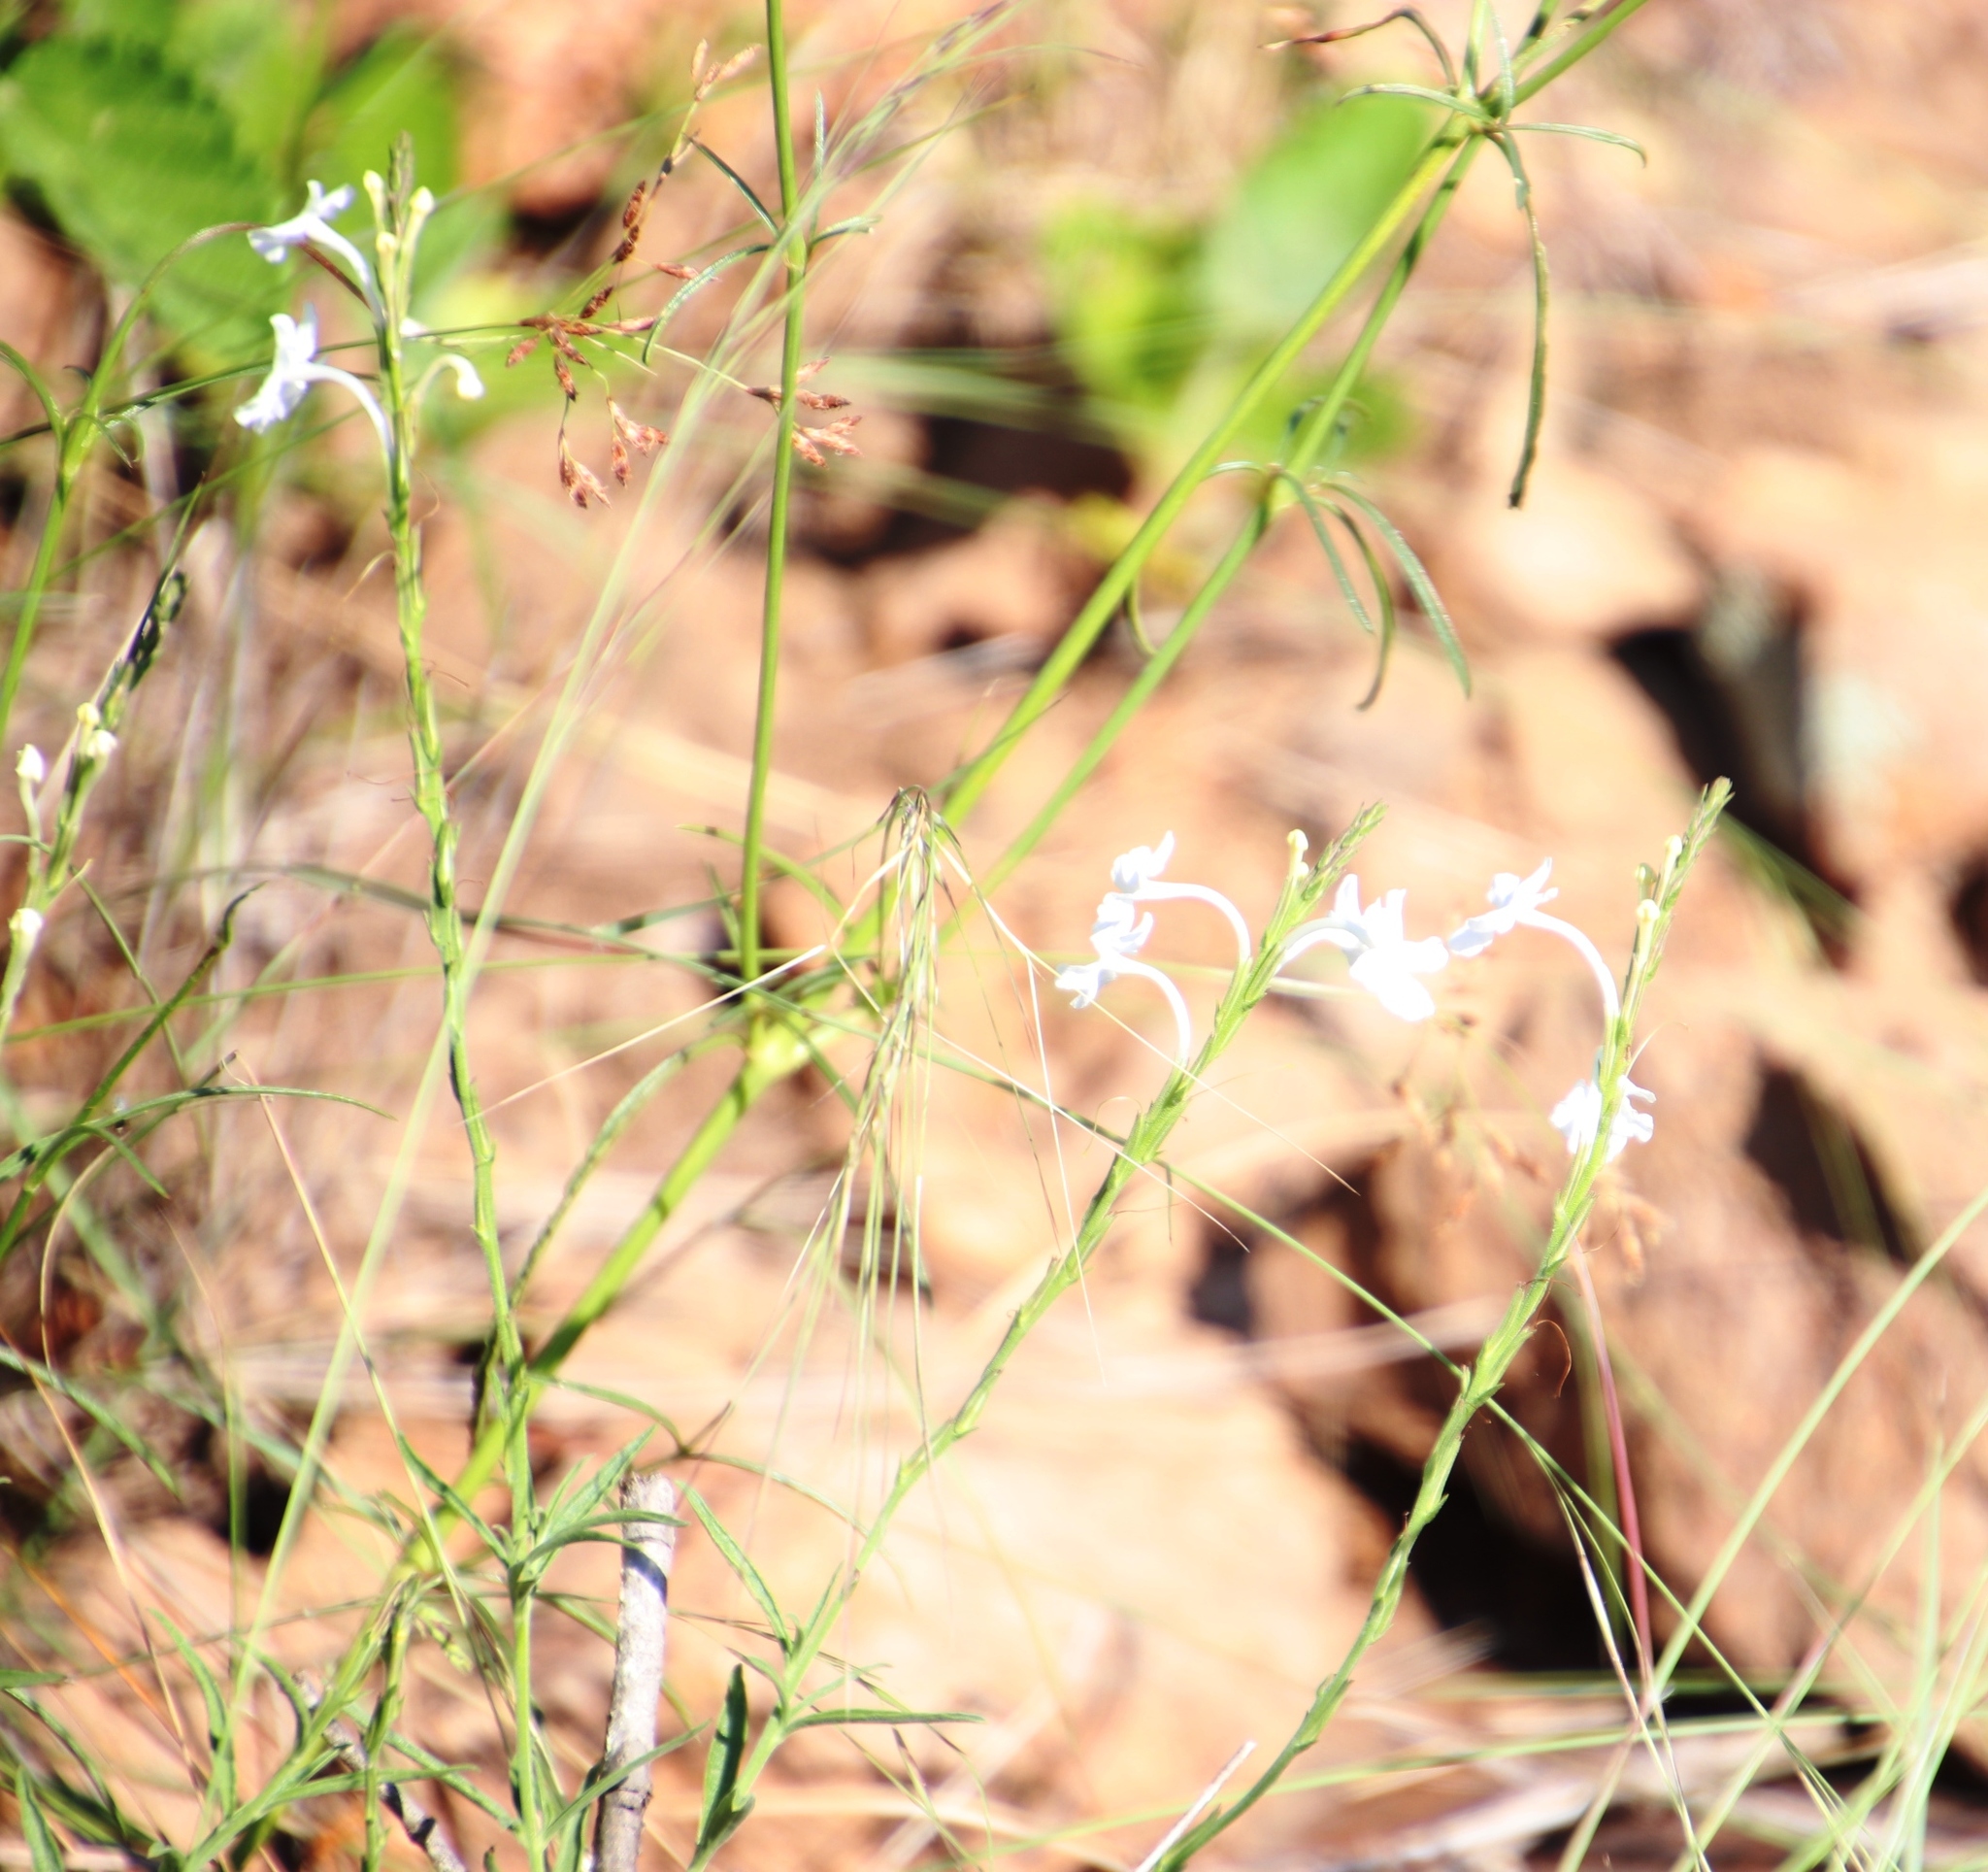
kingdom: Plantae
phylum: Tracheophyta
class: Magnoliopsida
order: Lamiales
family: Verbenaceae
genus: Chascanum
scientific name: Chascanum schlechteri
